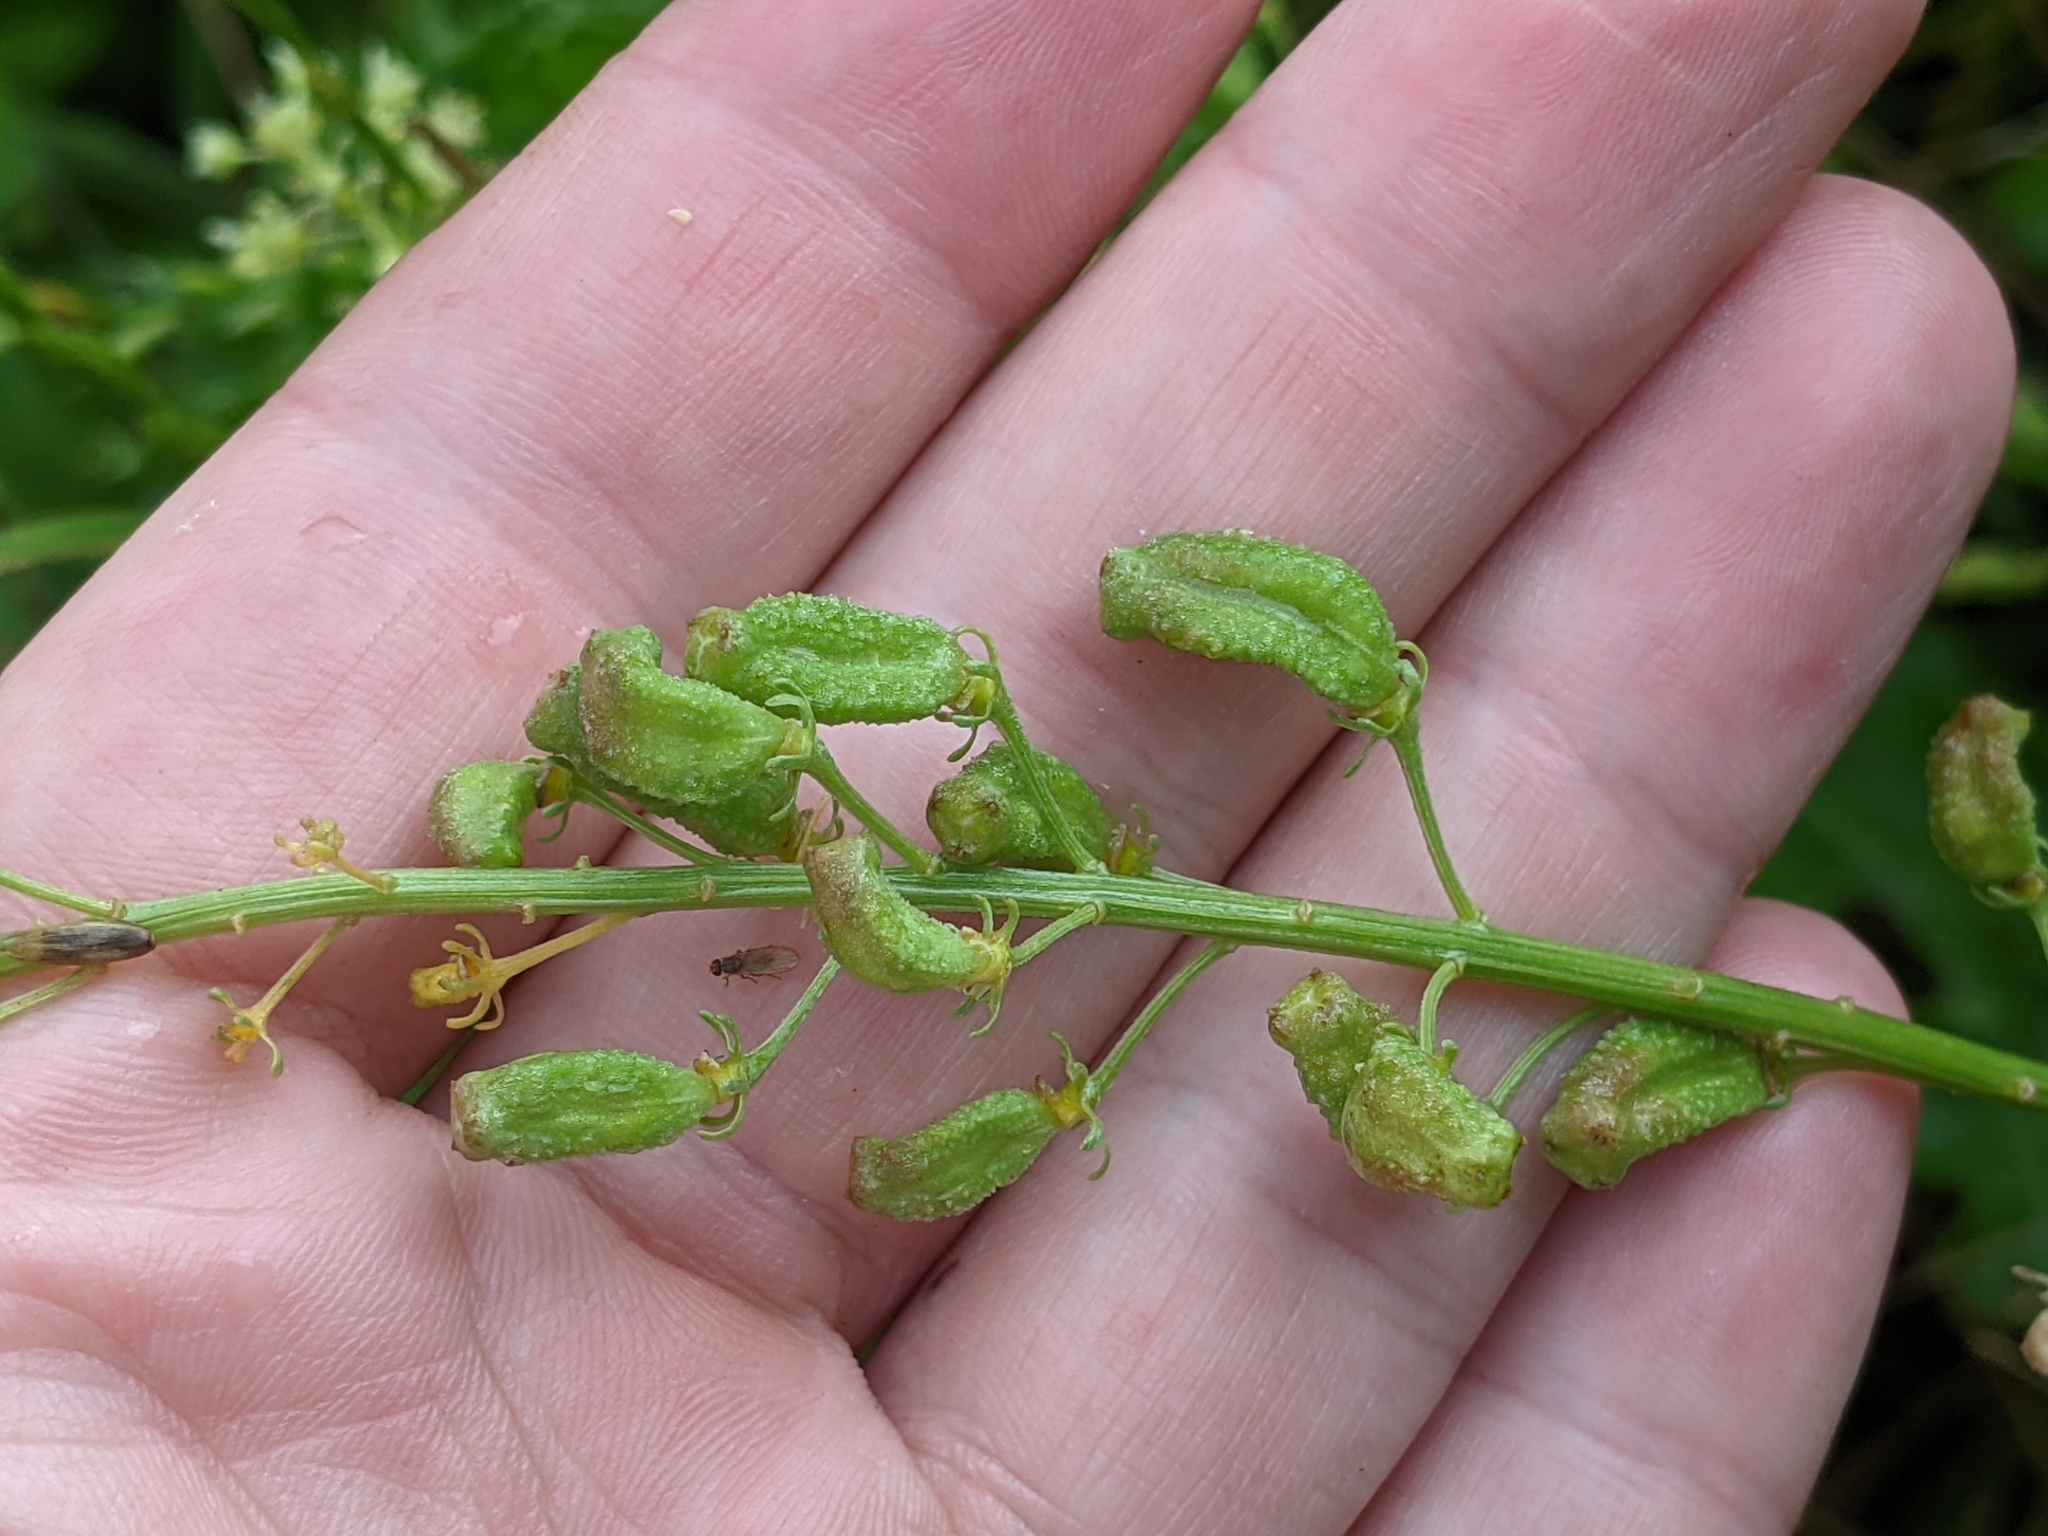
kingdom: Plantae
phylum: Tracheophyta
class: Magnoliopsida
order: Brassicales
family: Resedaceae
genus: Reseda
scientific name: Reseda lutea
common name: Wild mignonette
